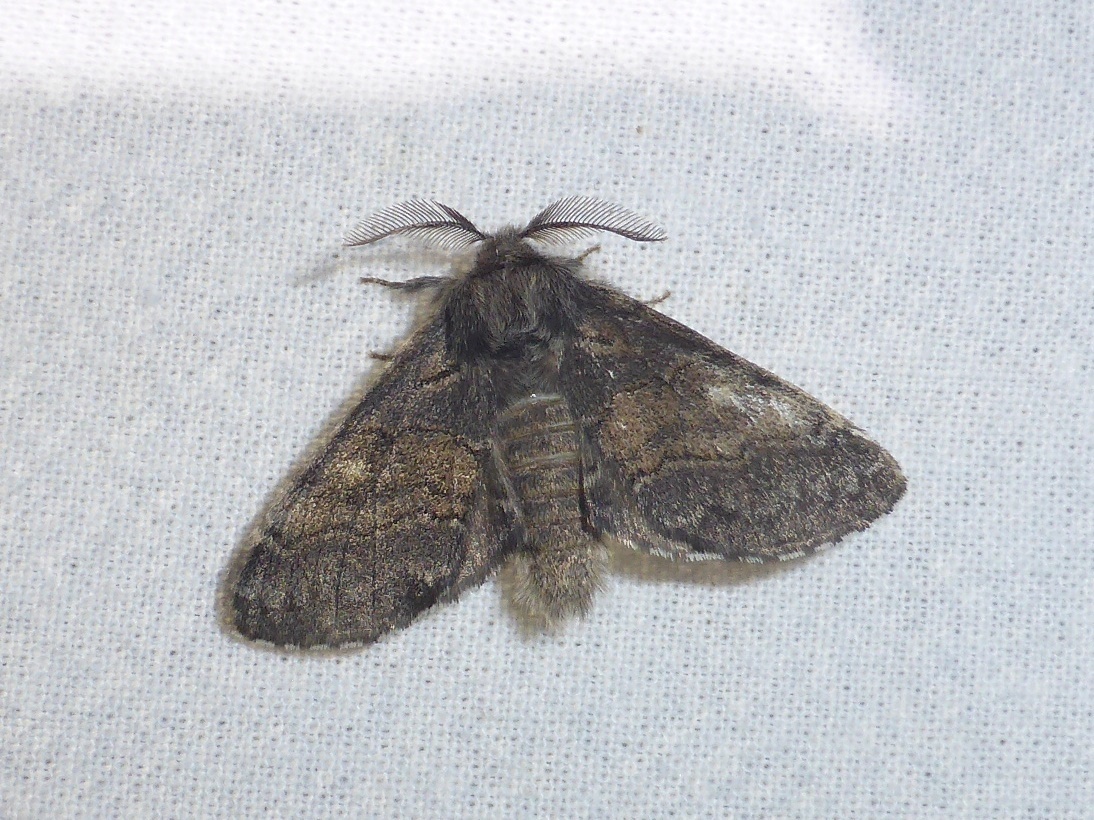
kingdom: Animalia
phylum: Arthropoda
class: Insecta
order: Lepidoptera
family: Notodontidae
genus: Gluphisia
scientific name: Gluphisia crenata
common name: Dusky marbled brown
